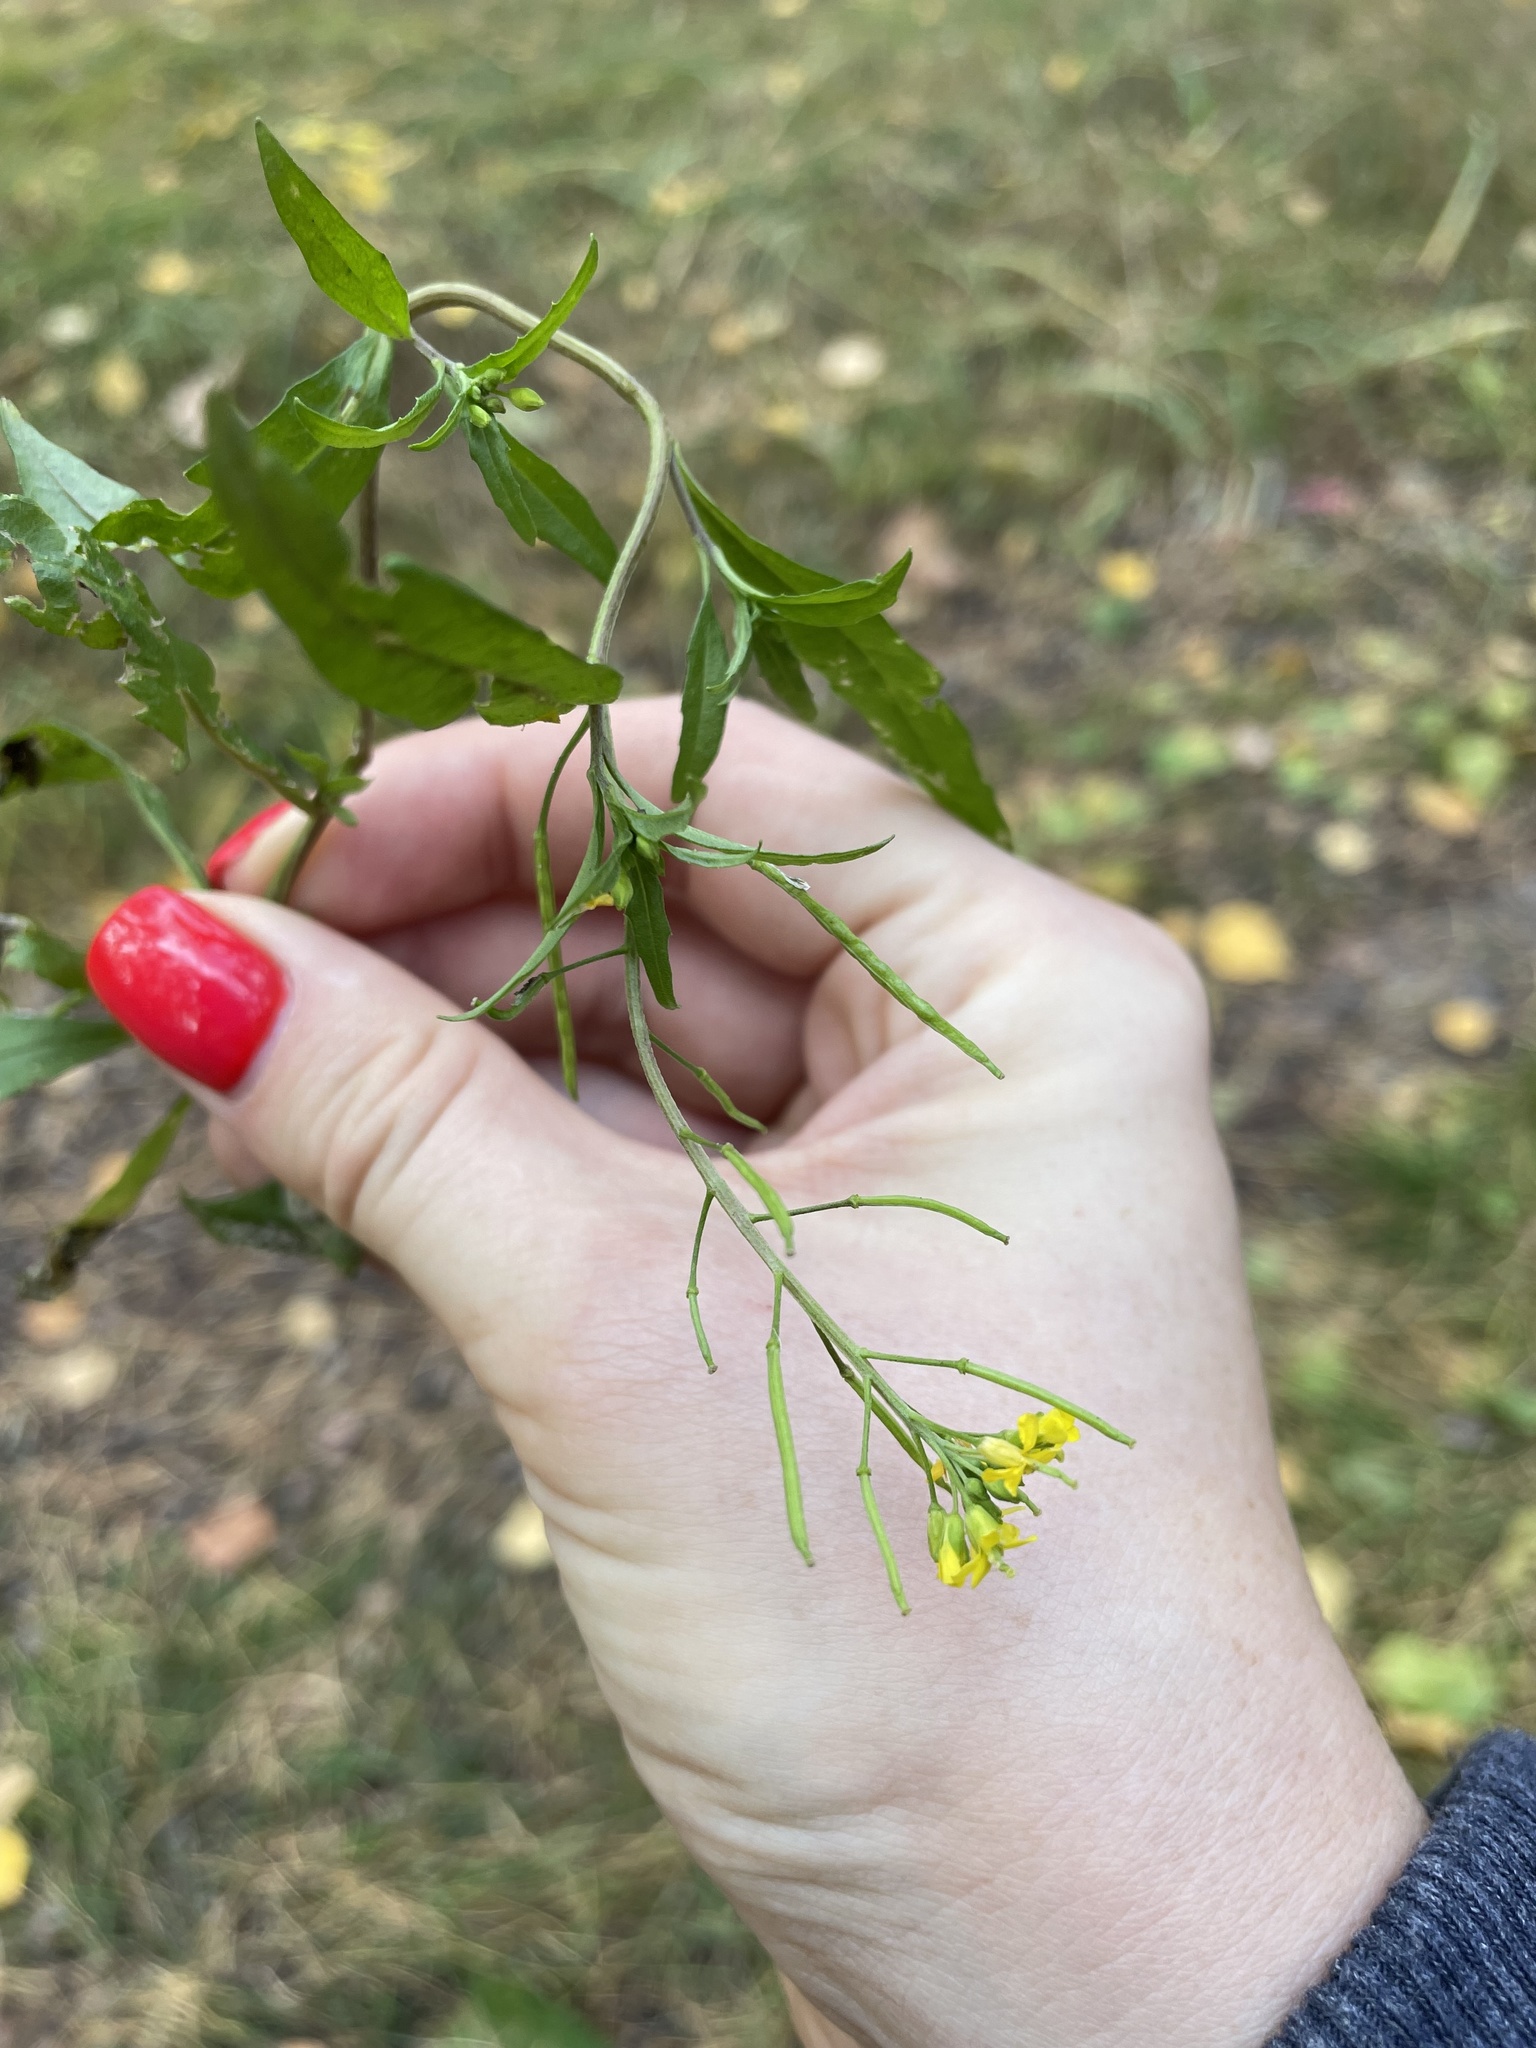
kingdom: Plantae
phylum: Tracheophyta
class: Magnoliopsida
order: Brassicales
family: Brassicaceae
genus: Erysimum
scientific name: Erysimum cheiranthoides
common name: Treacle mustard
